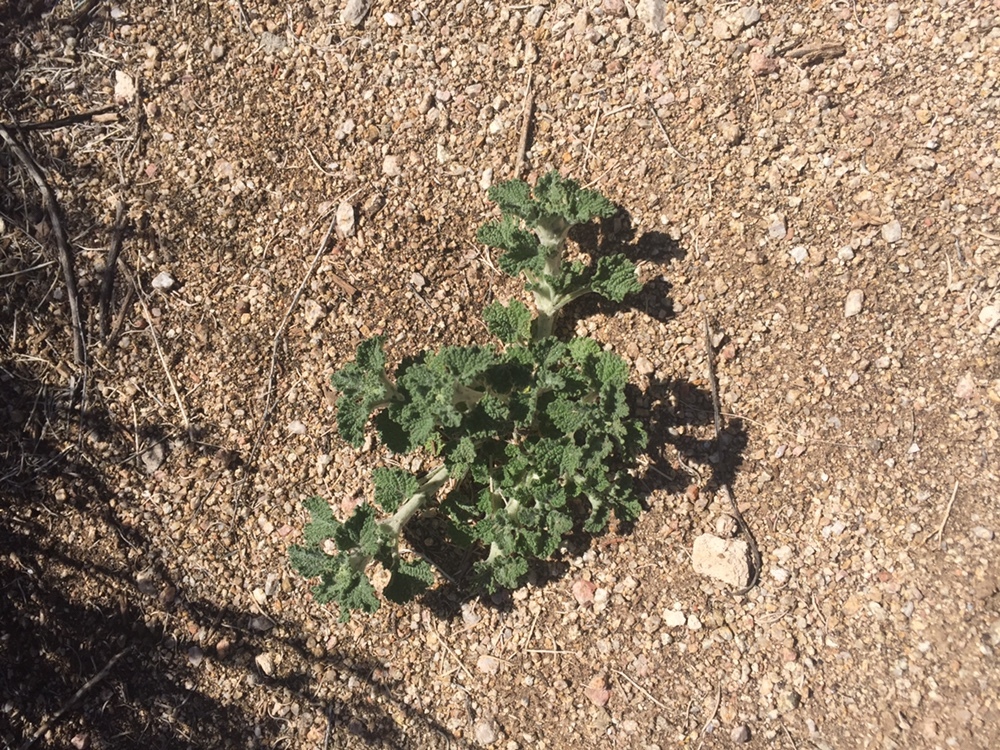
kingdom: Plantae
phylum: Tracheophyta
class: Magnoliopsida
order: Lamiales
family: Lamiaceae
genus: Marrubium
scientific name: Marrubium vulgare
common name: Horehound
